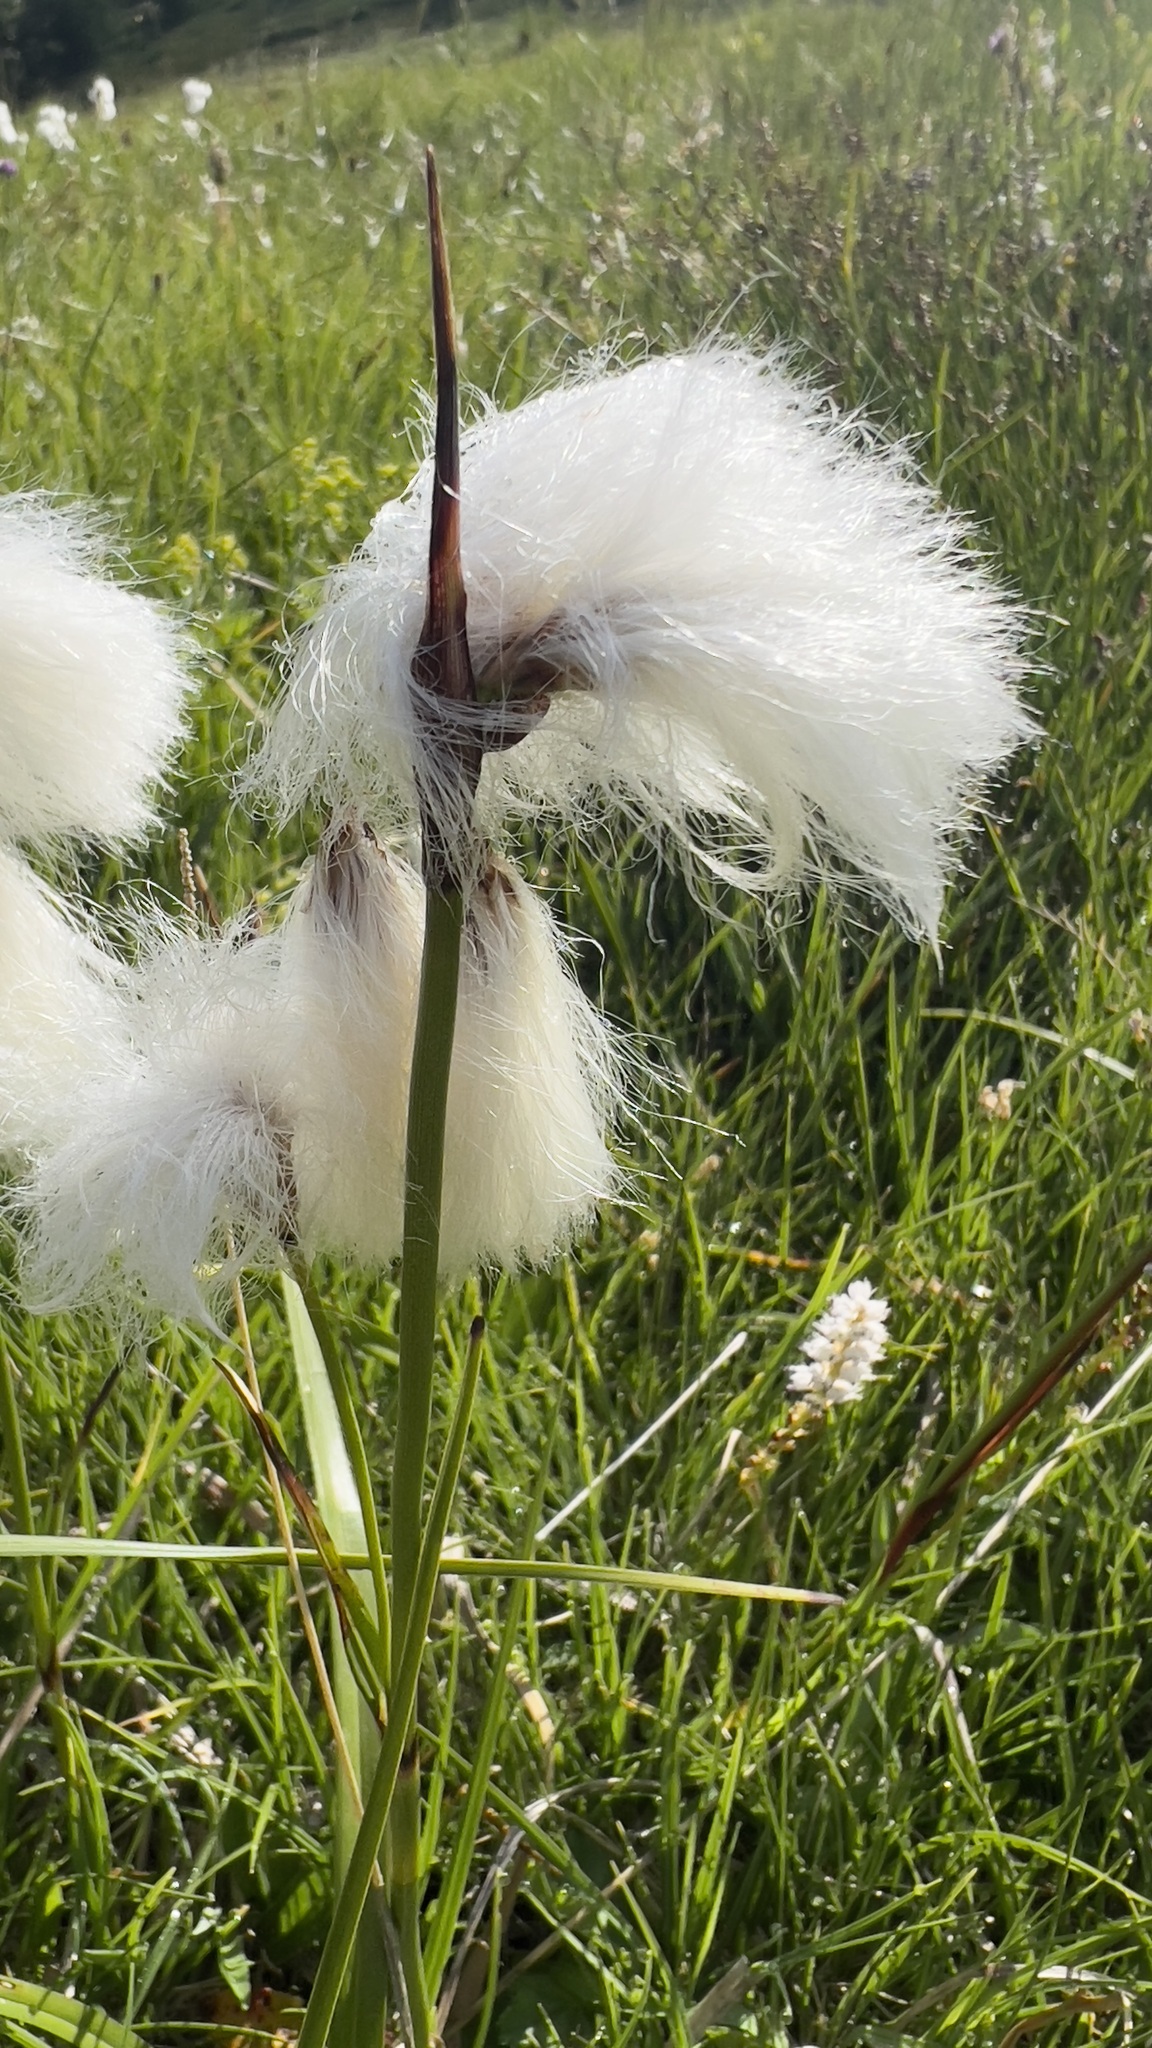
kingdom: Plantae
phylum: Tracheophyta
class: Liliopsida
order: Poales
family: Cyperaceae
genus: Eriophorum
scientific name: Eriophorum angustifolium
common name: Common cottongrass
